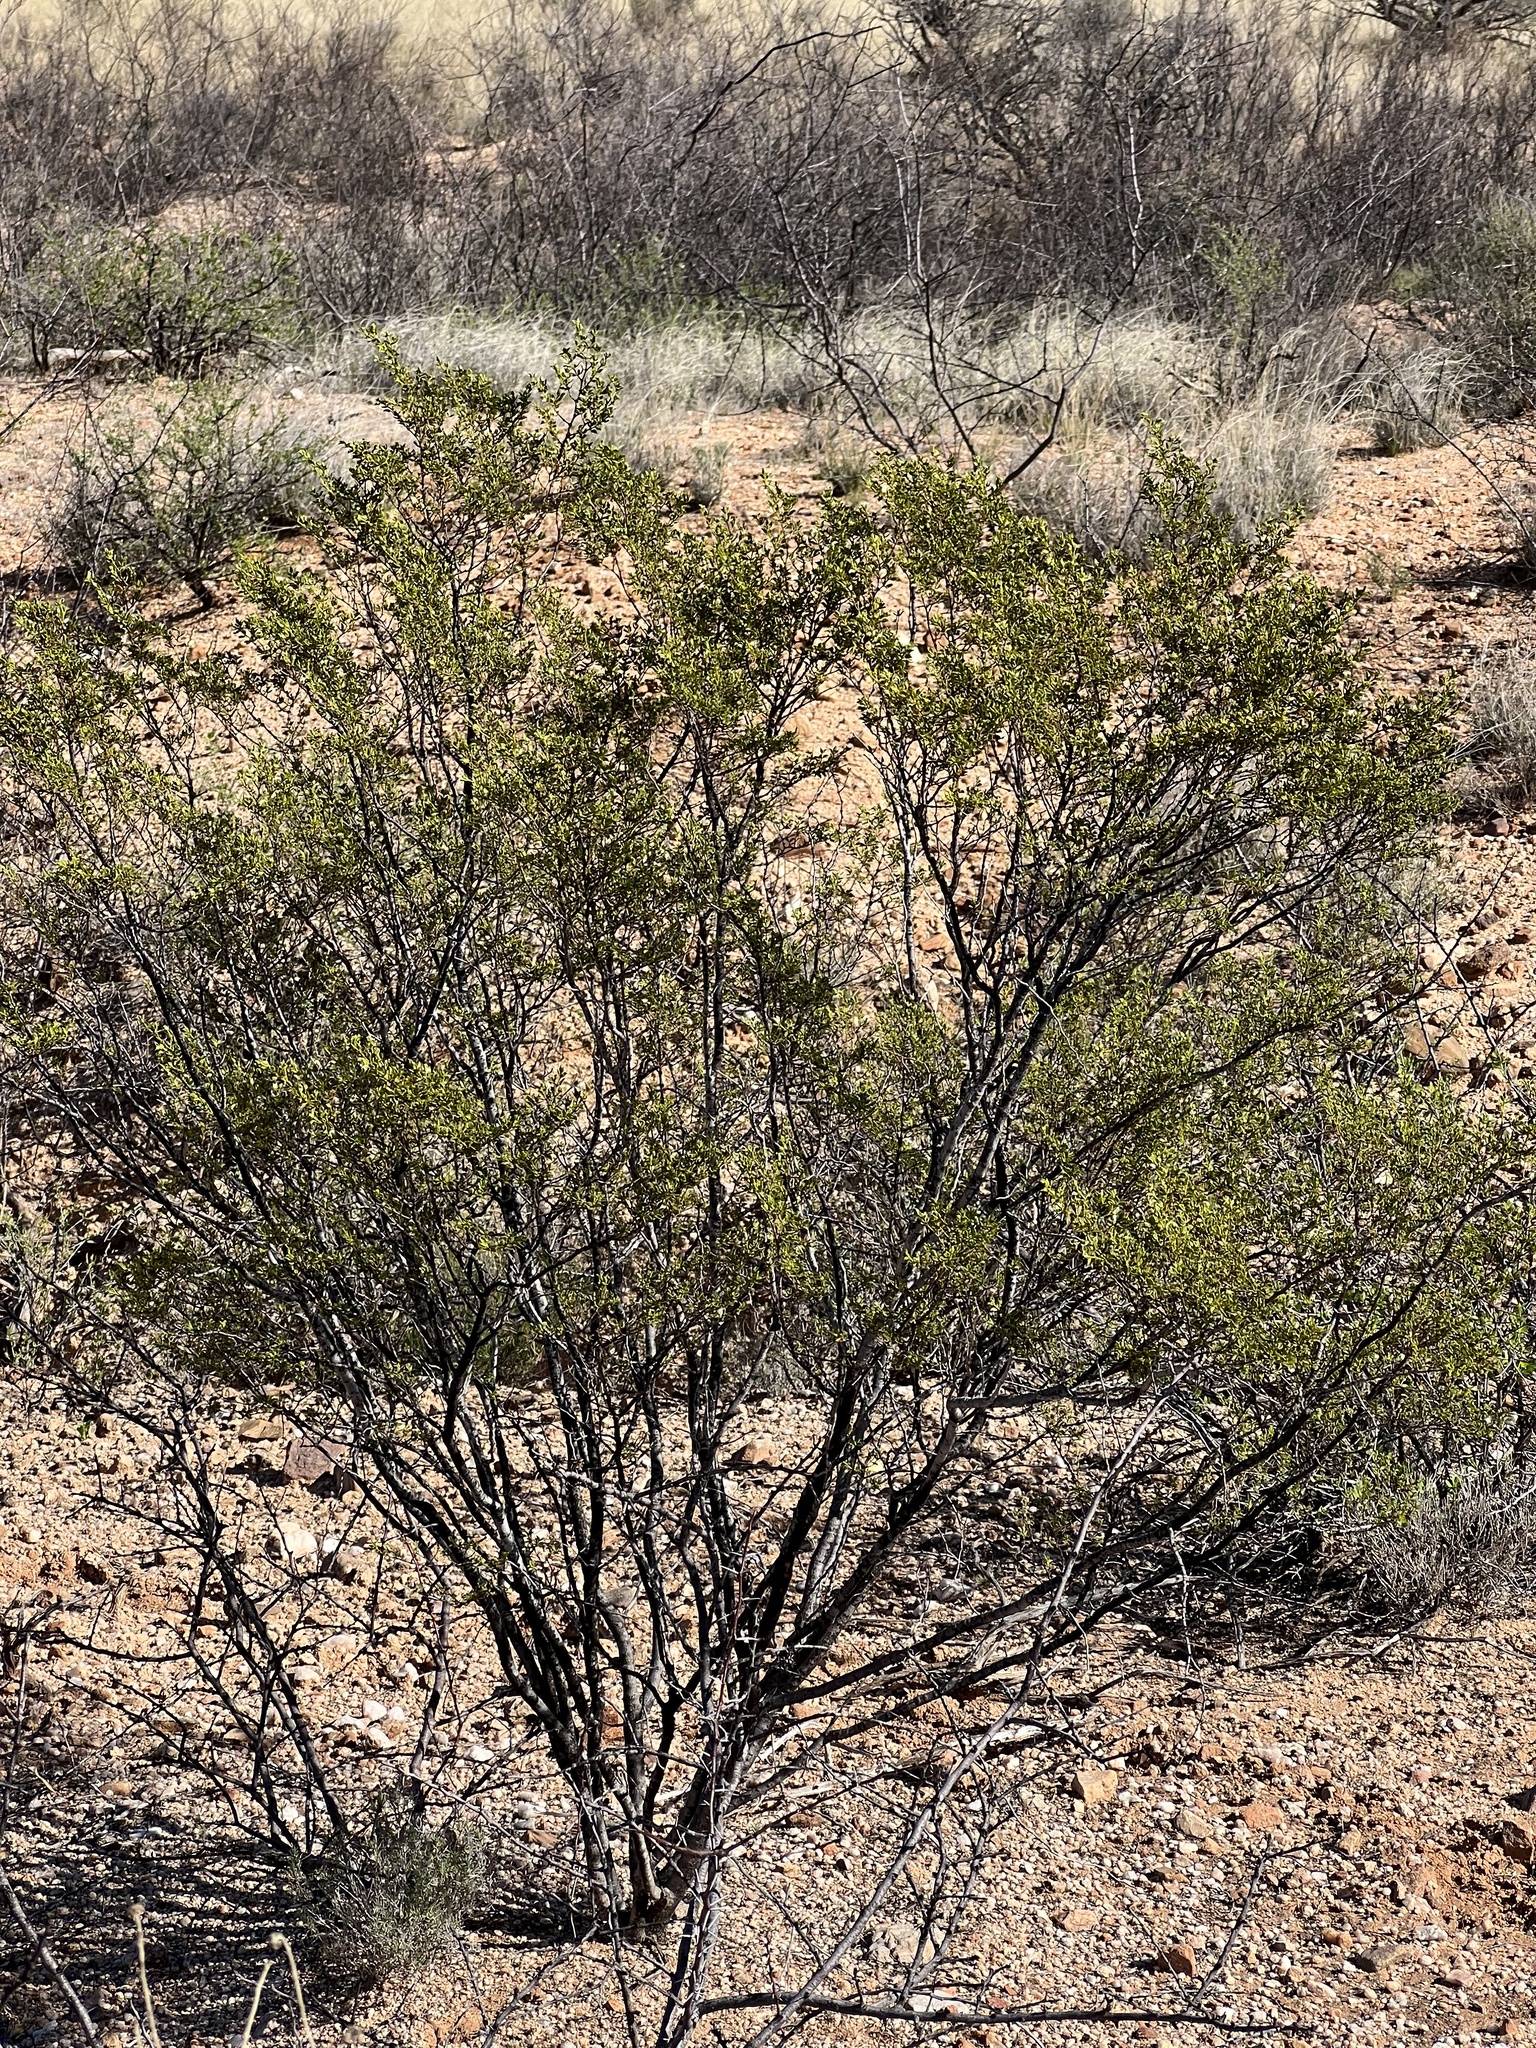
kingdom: Plantae
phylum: Tracheophyta
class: Magnoliopsida
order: Zygophyllales
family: Zygophyllaceae
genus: Larrea
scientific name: Larrea tridentata
